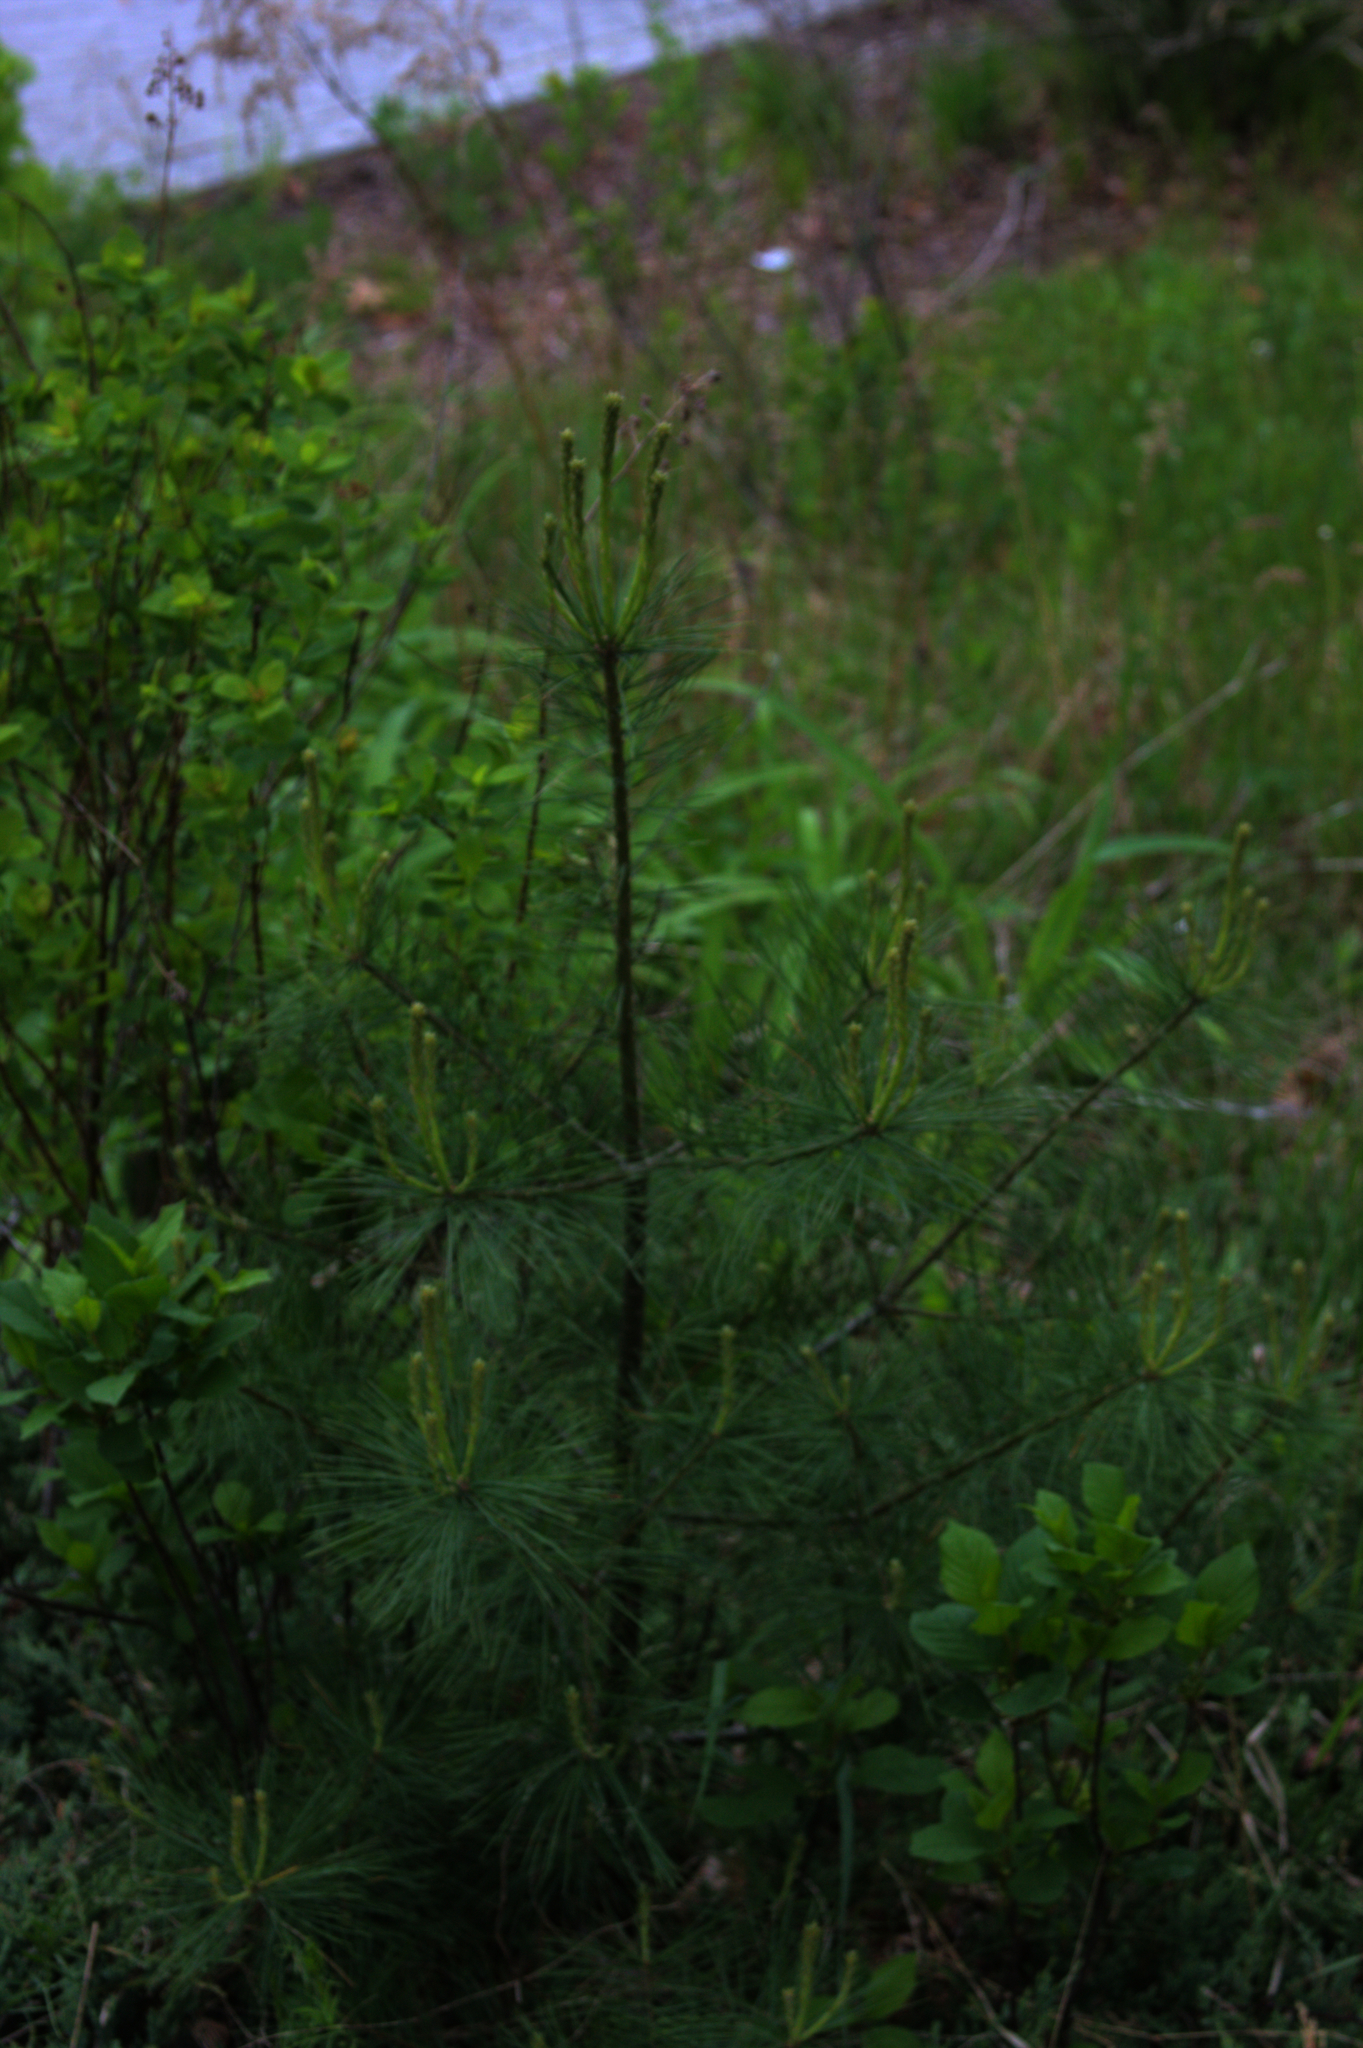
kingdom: Plantae
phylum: Tracheophyta
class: Pinopsida
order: Pinales
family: Pinaceae
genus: Pinus
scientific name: Pinus strobus
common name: Weymouth pine
